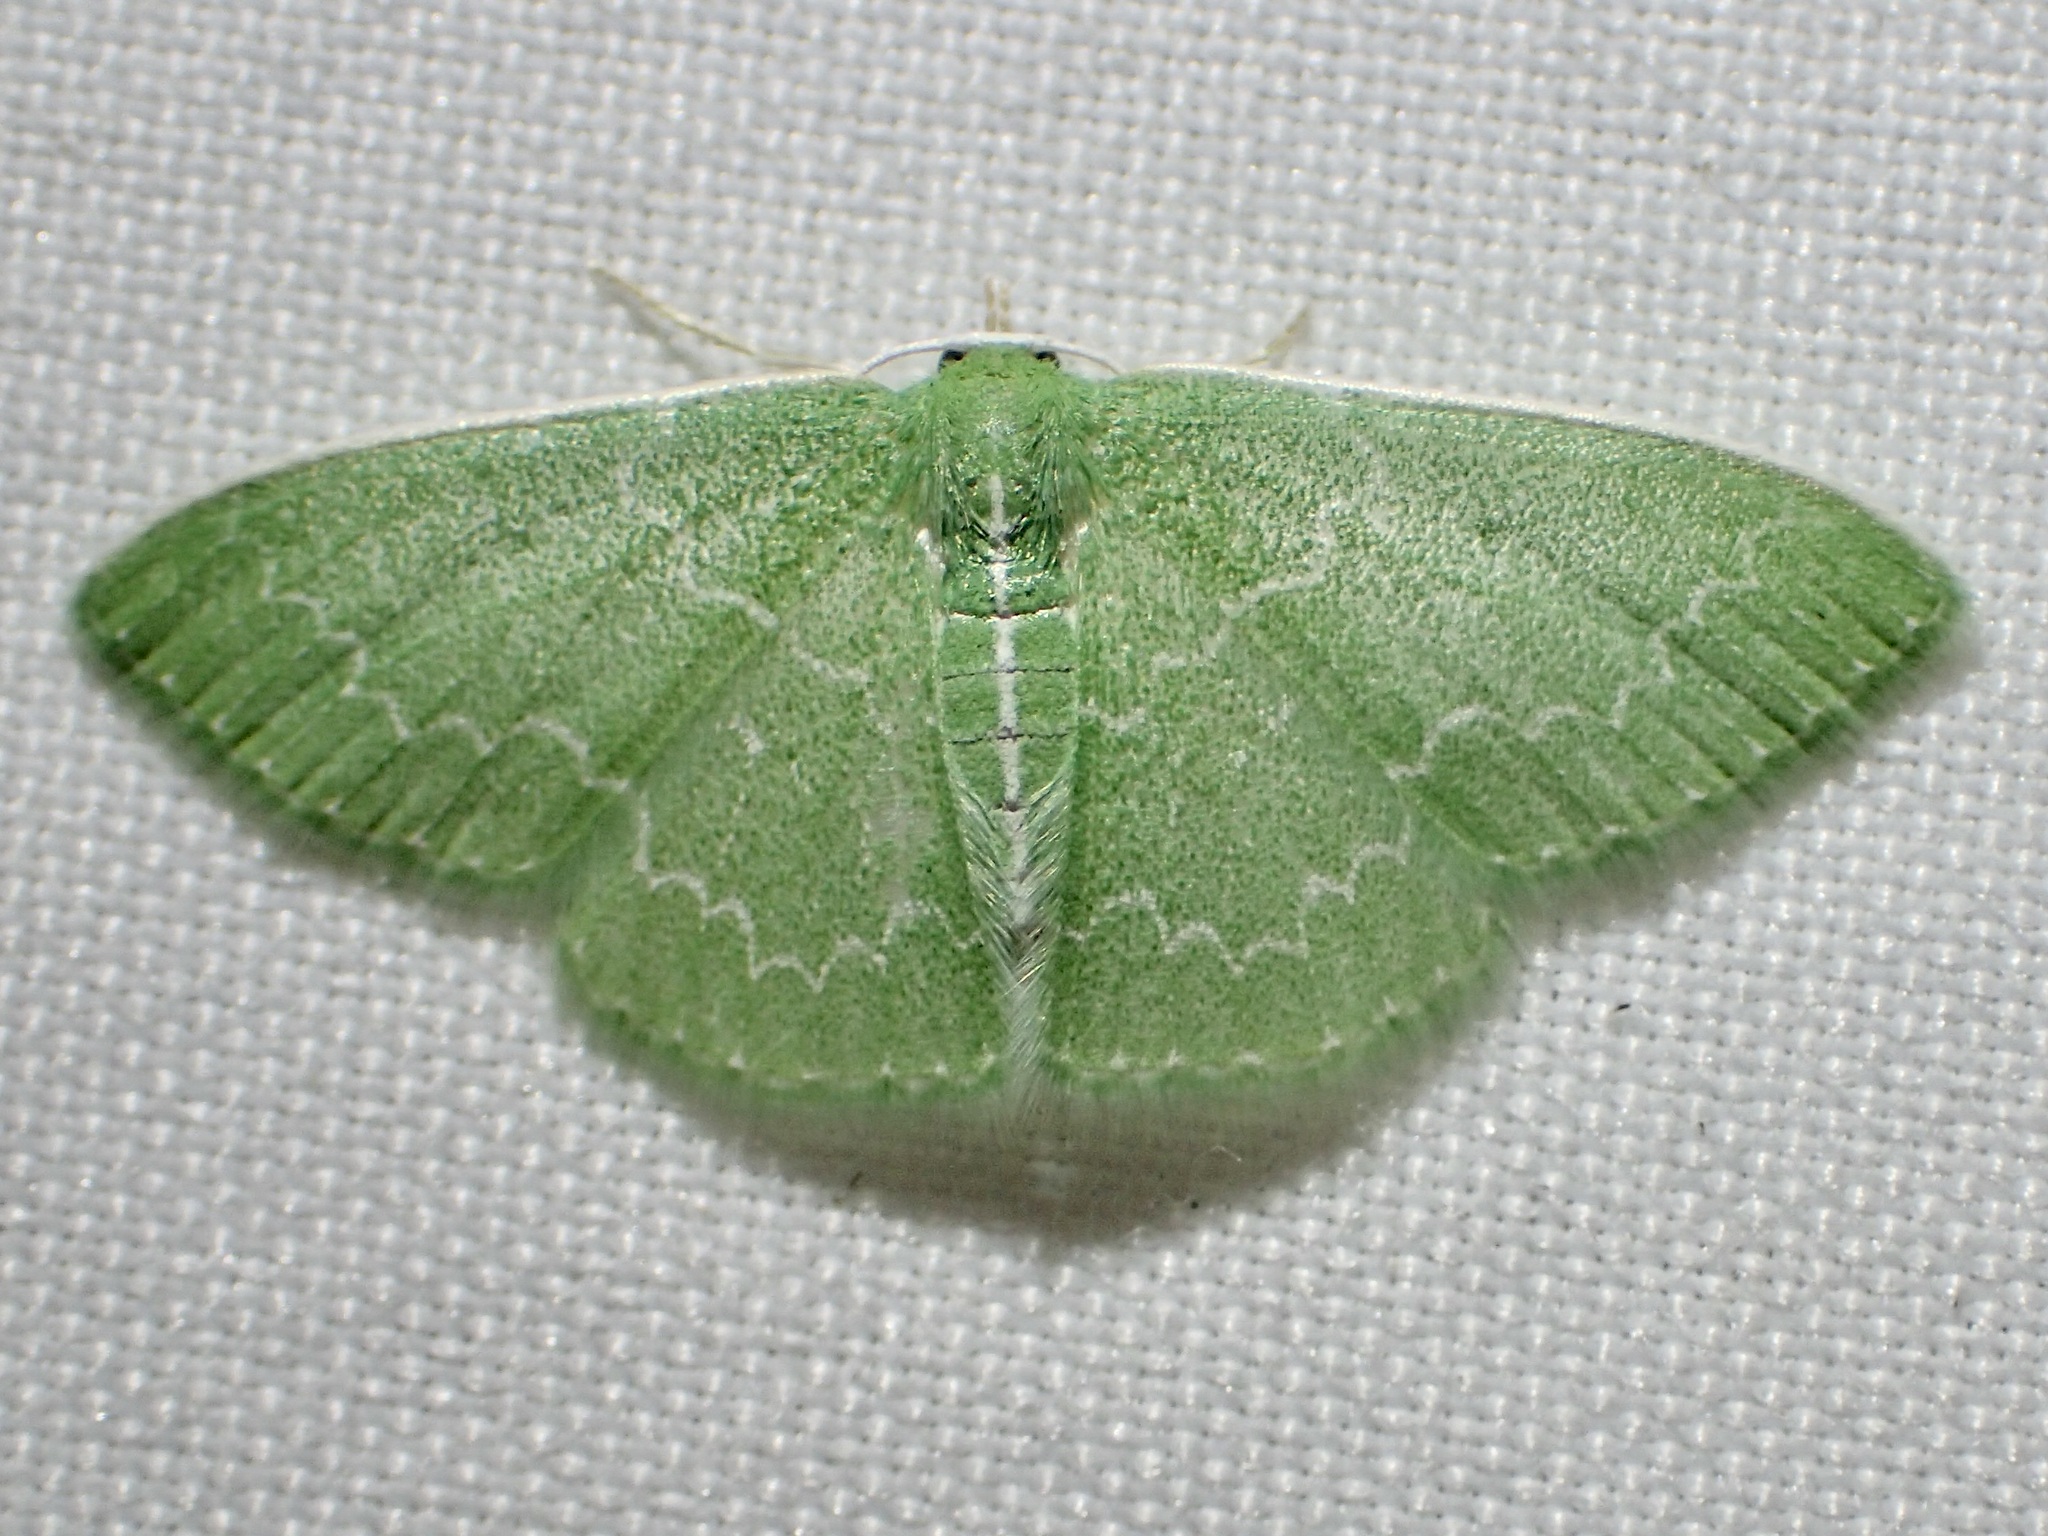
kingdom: Animalia
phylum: Arthropoda
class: Insecta
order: Lepidoptera
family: Geometridae
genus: Synchlora
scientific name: Synchlora frondaria
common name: Southern emerald
